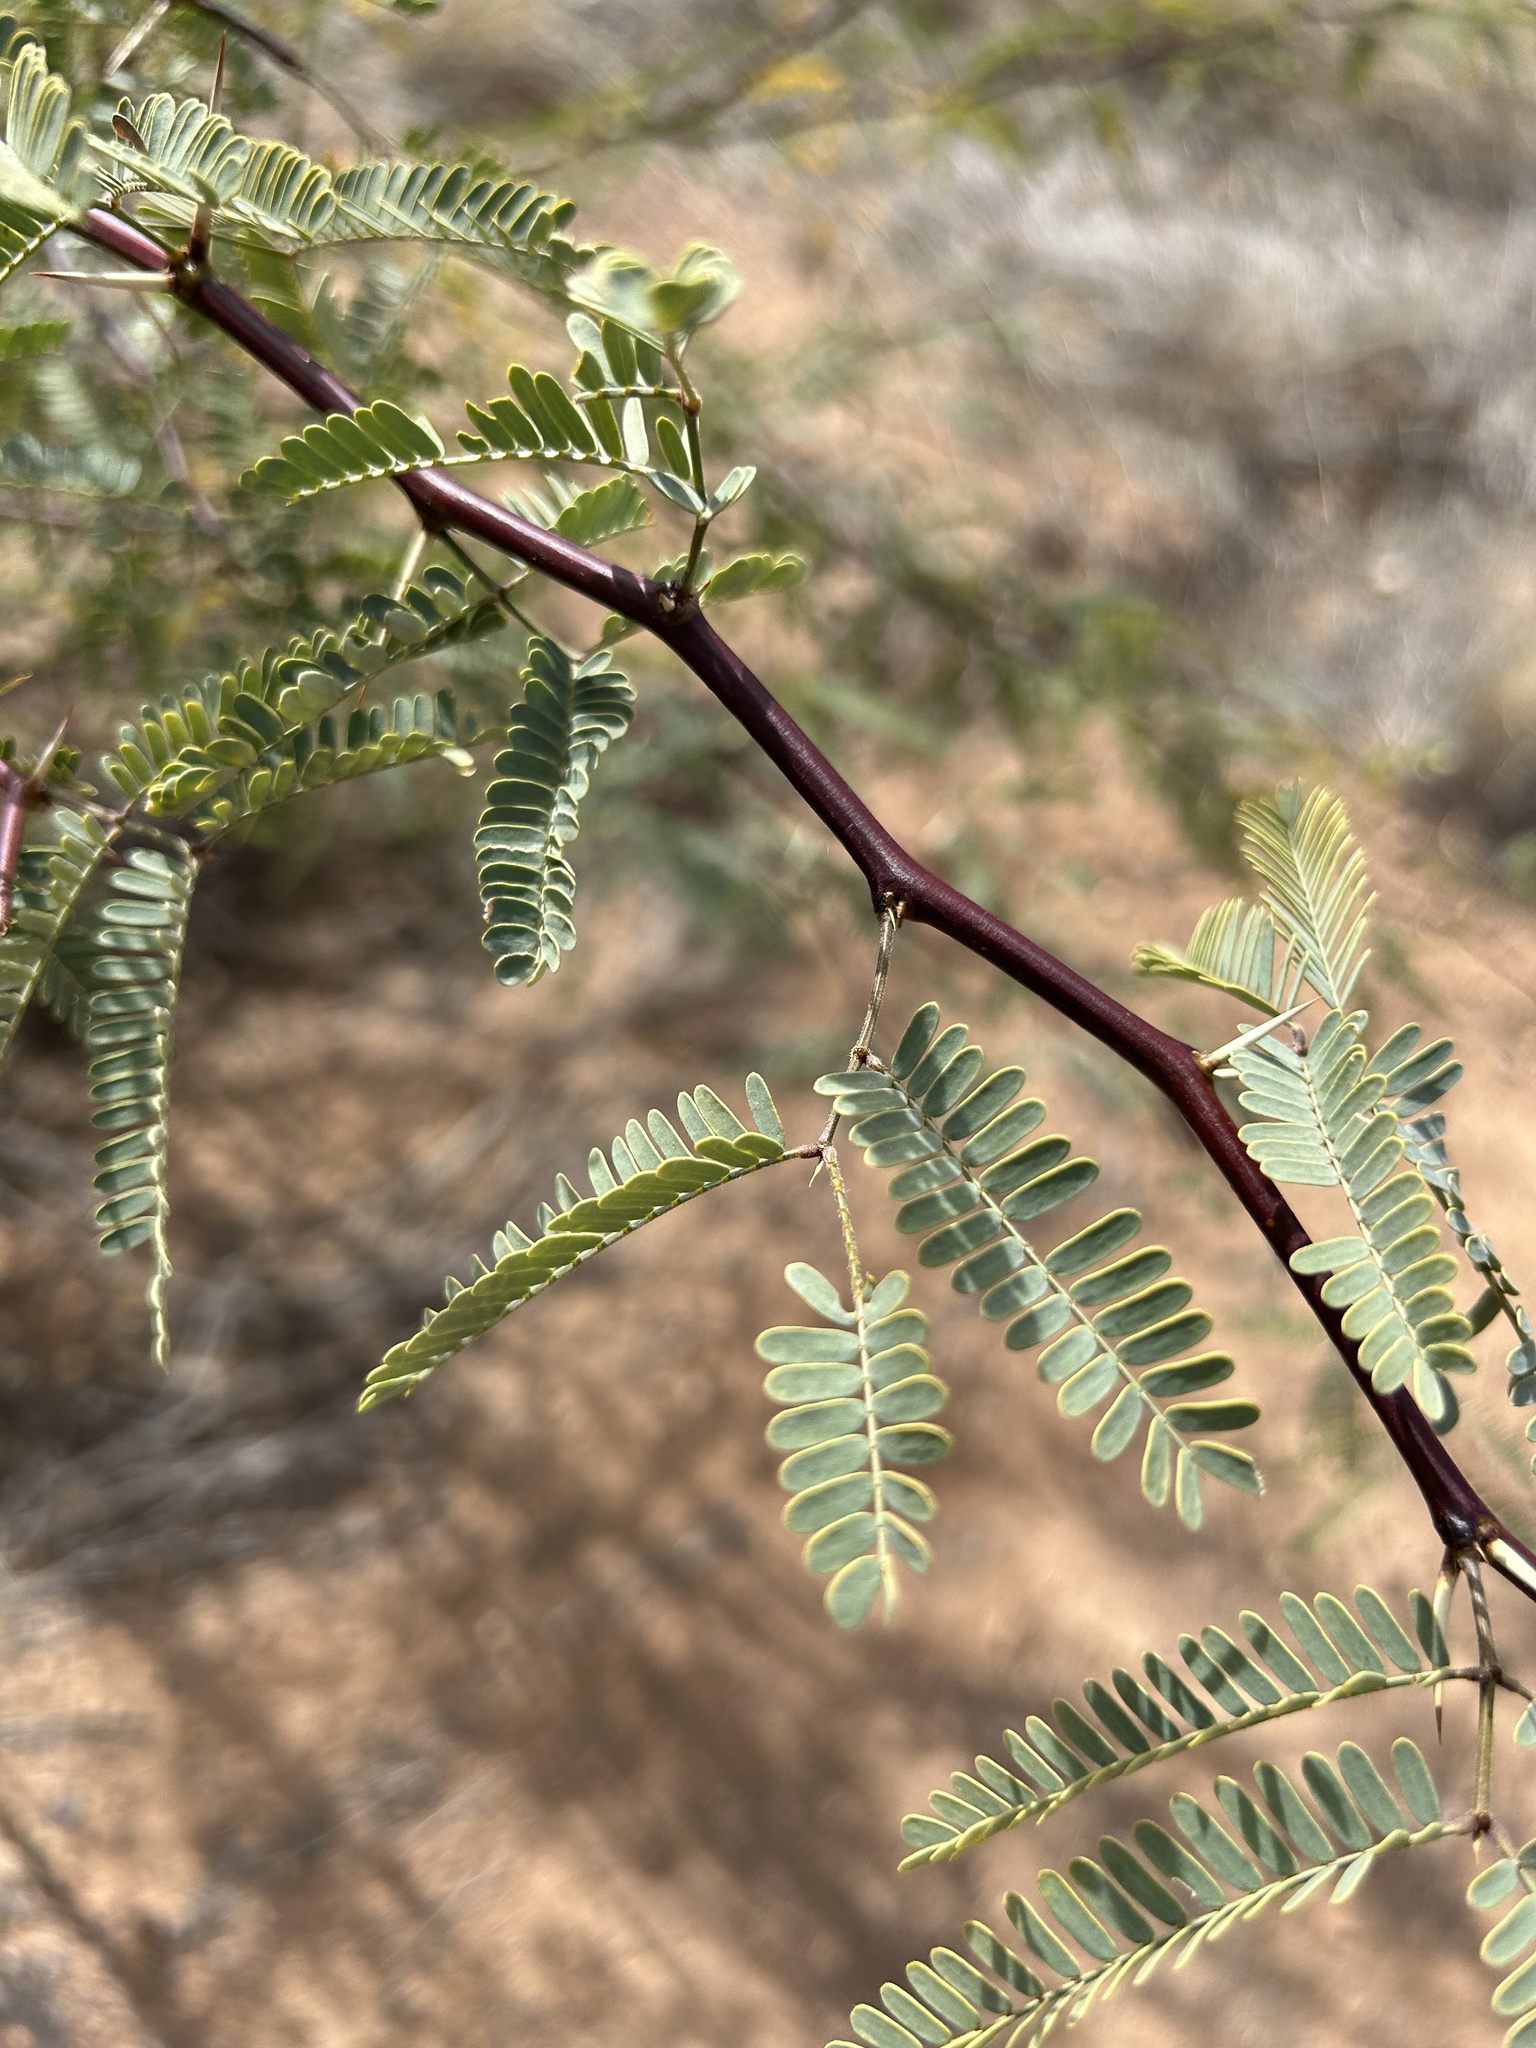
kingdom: Plantae
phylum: Tracheophyta
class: Magnoliopsida
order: Fabales
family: Fabaceae
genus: Prosopis
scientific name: Prosopis velutina
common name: Velvet mesquite
